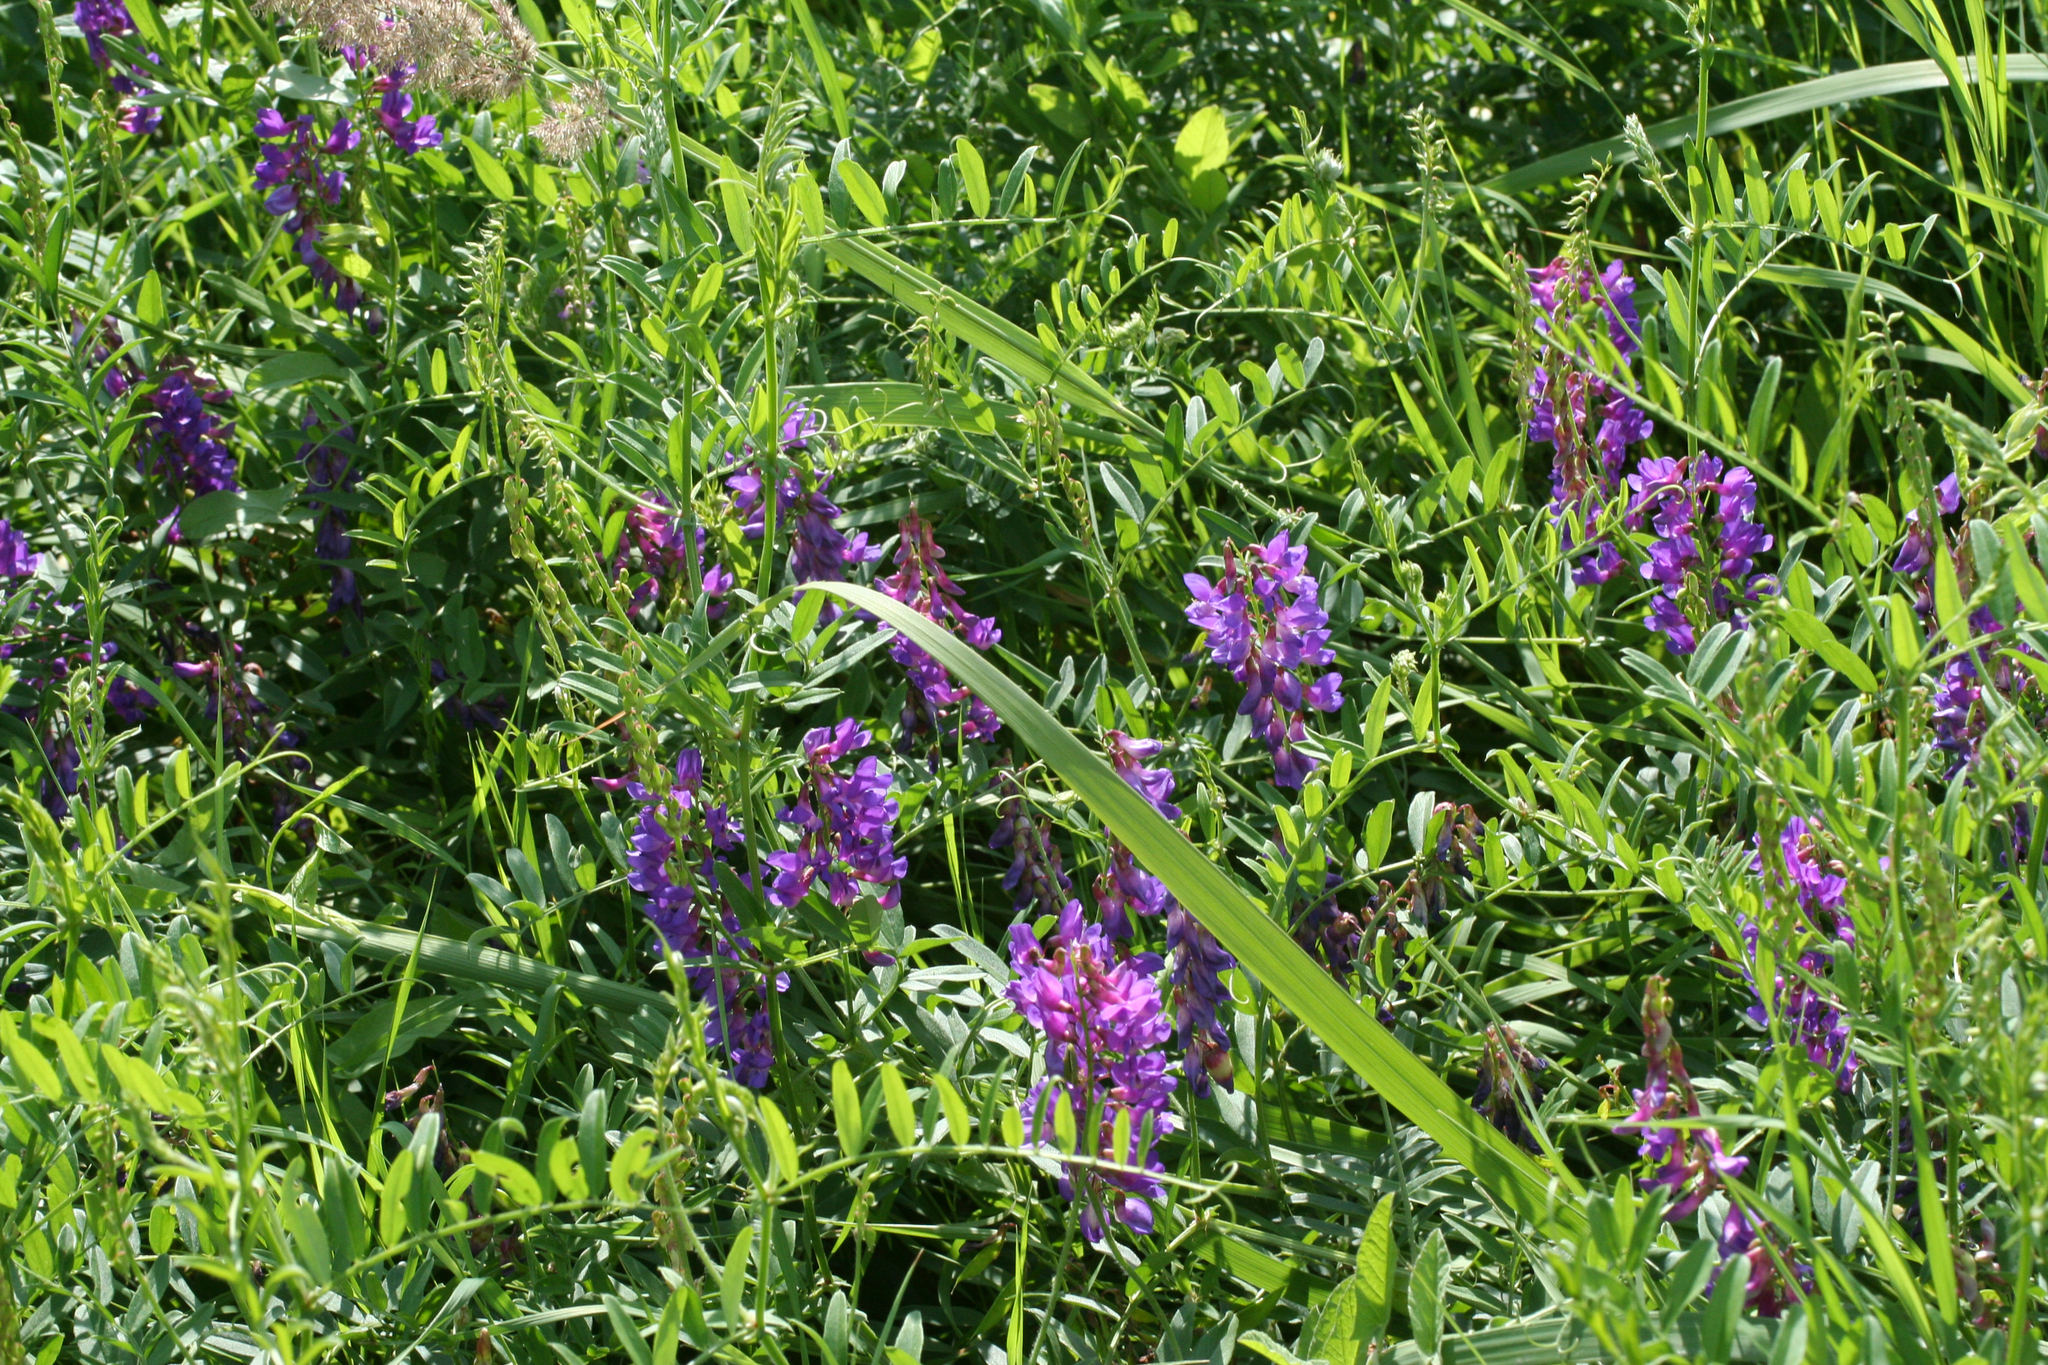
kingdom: Plantae
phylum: Tracheophyta
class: Magnoliopsida
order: Fabales
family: Fabaceae
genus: Vicia
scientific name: Vicia amoena
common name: Cheder ebs
